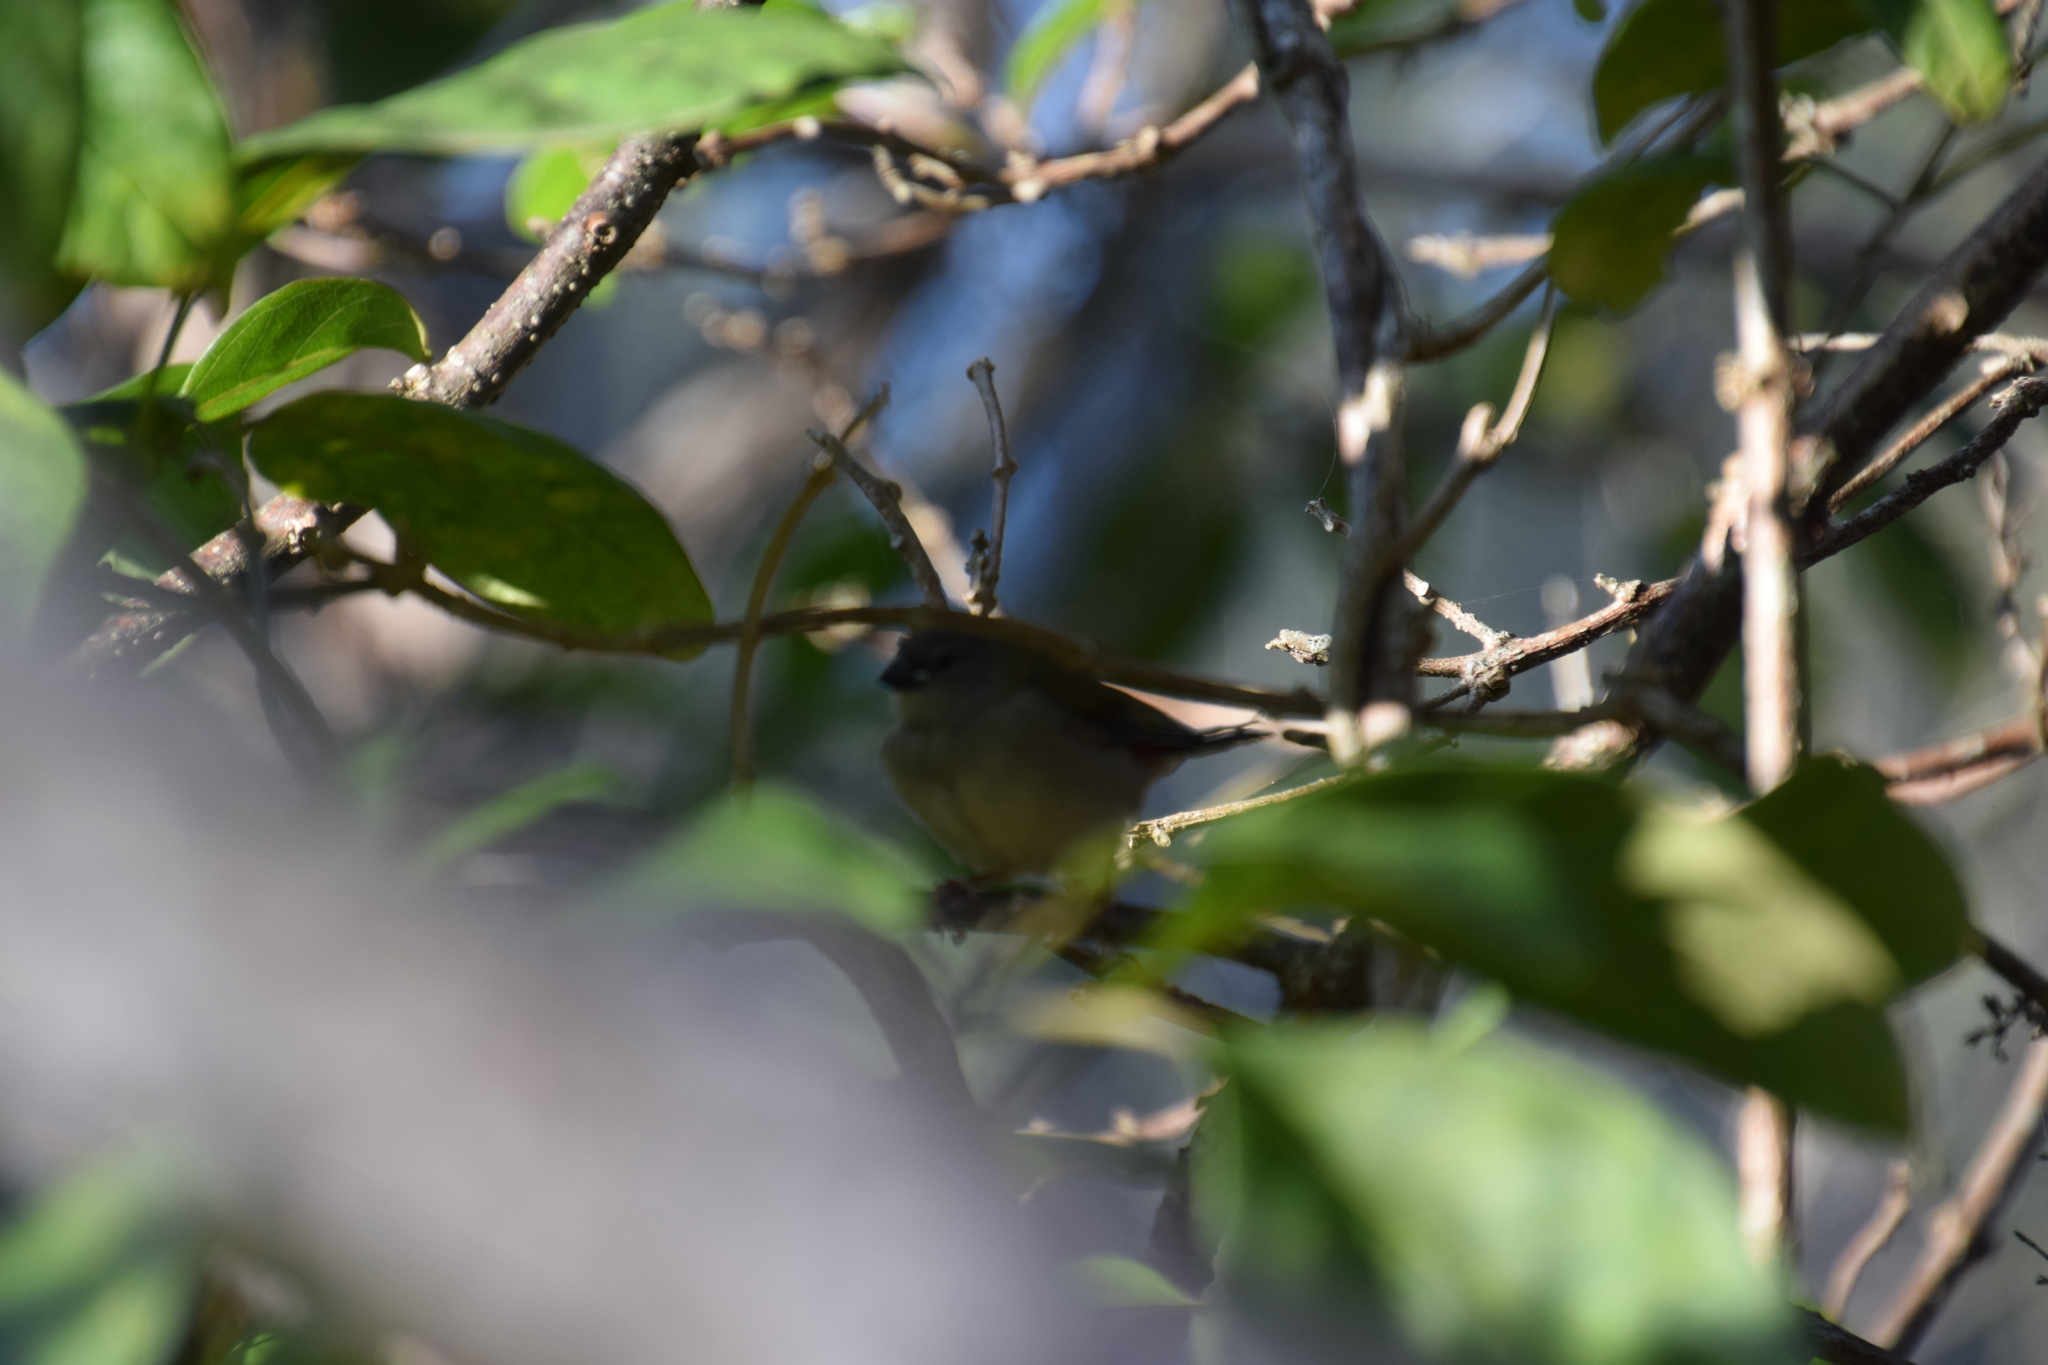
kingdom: Animalia
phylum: Chordata
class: Aves
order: Passeriformes
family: Estrildidae
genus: Neochmia
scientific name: Neochmia temporalis
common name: Red-browed finch
